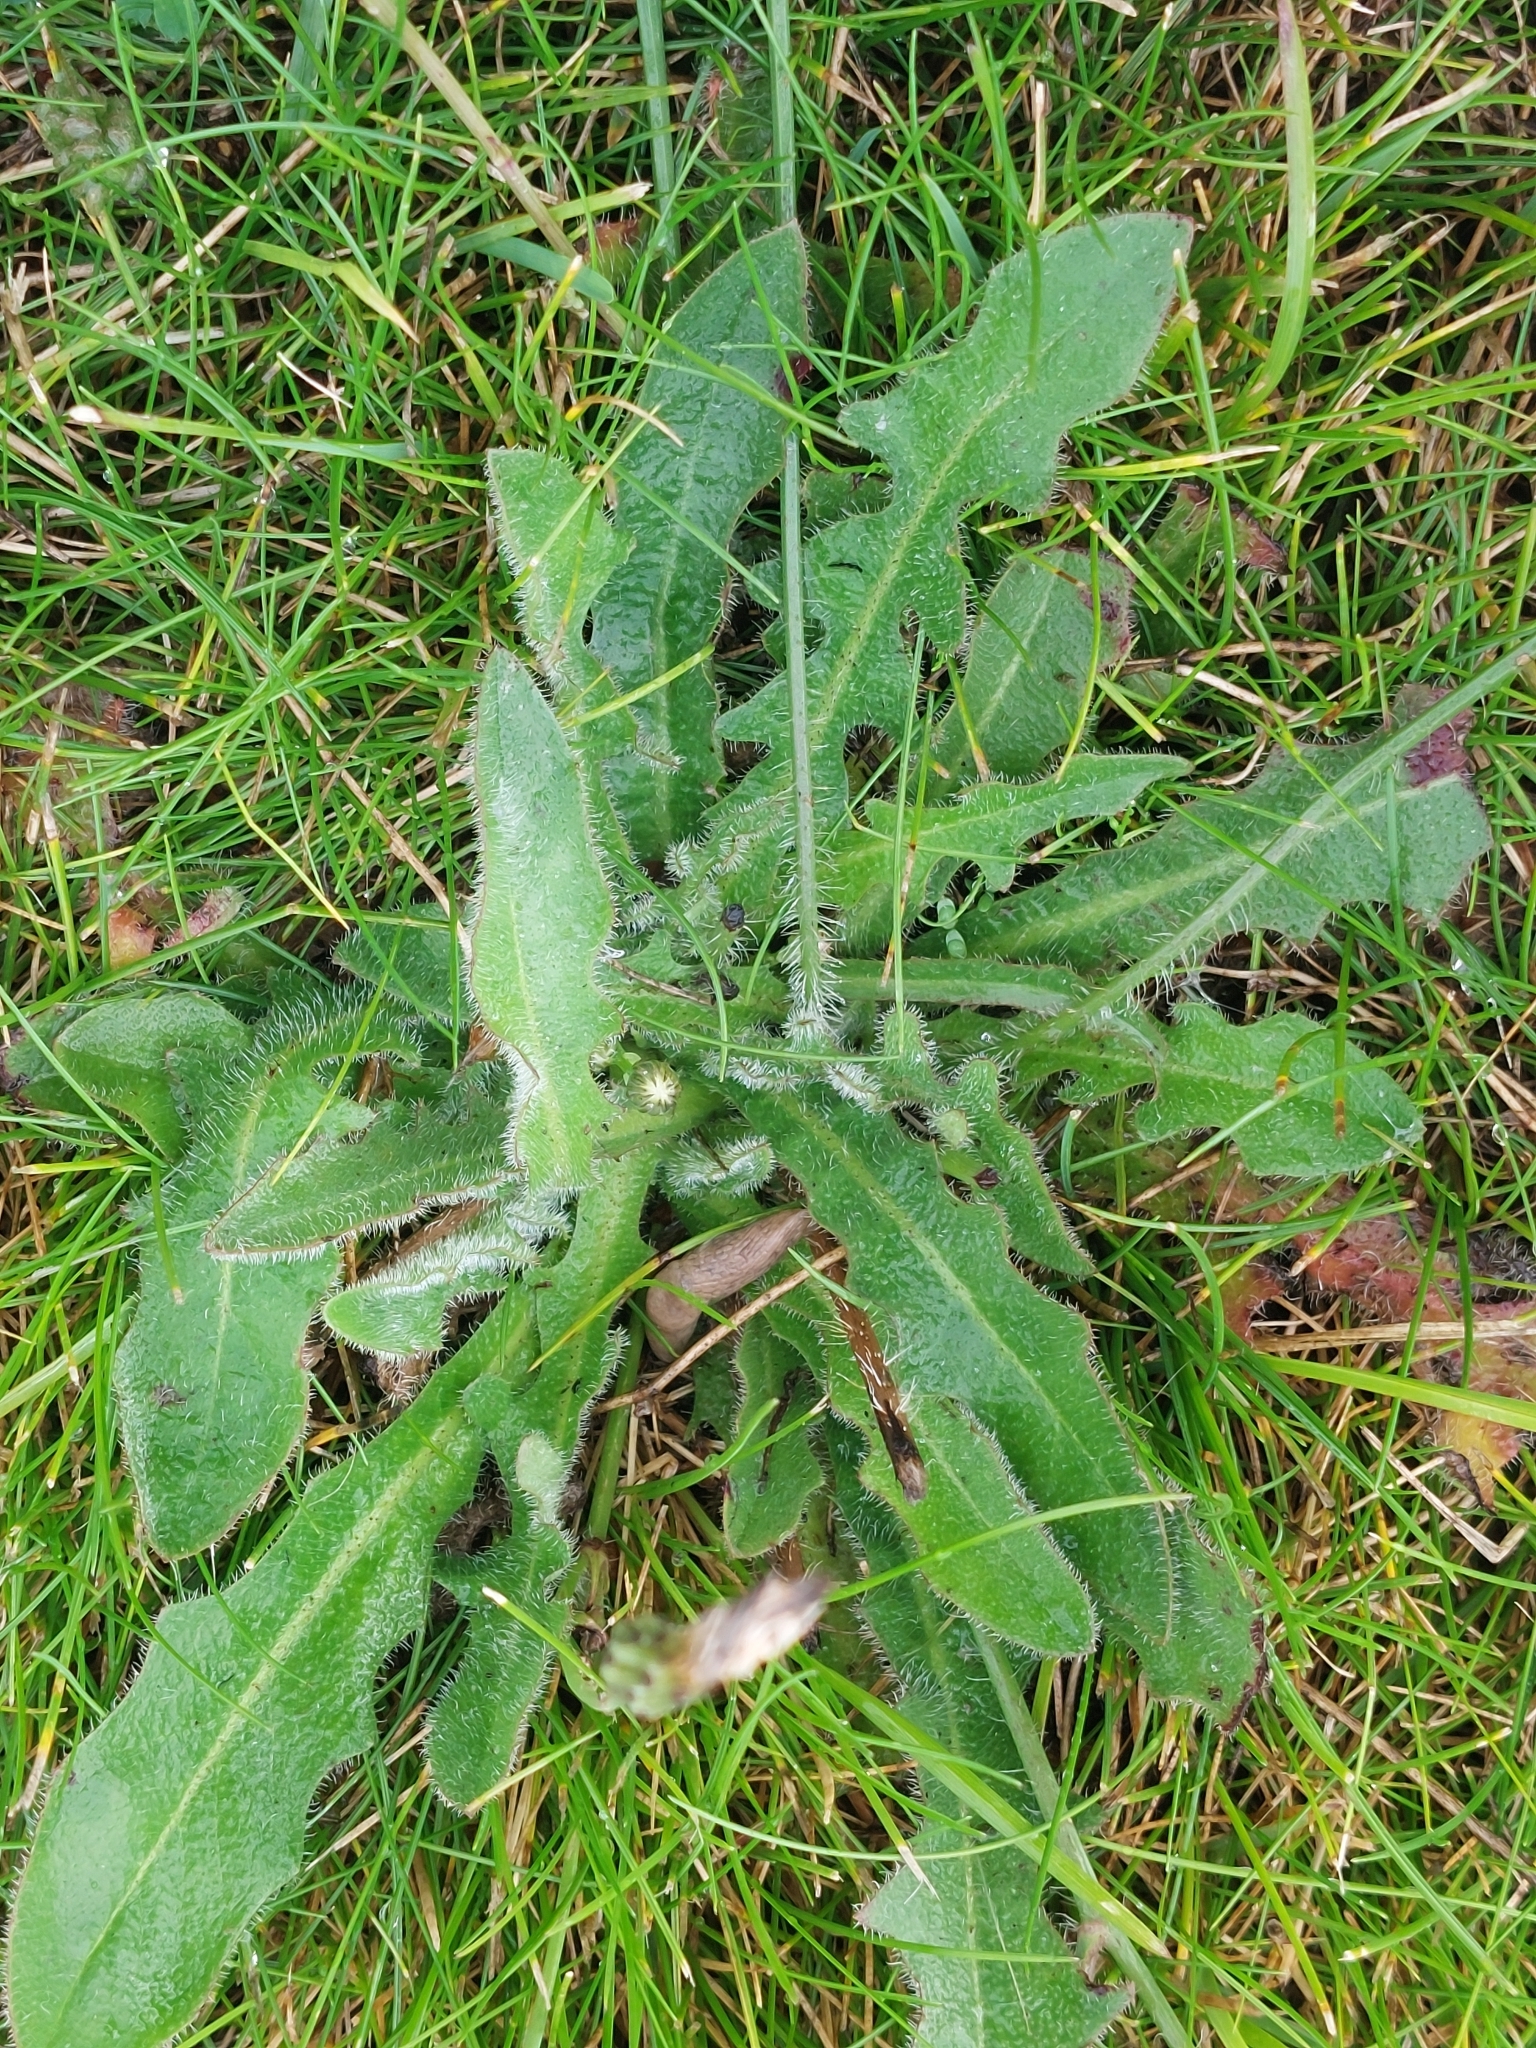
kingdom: Plantae
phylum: Tracheophyta
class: Magnoliopsida
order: Asterales
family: Asteraceae
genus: Hypochaeris
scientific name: Hypochaeris radicata
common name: Flatweed
